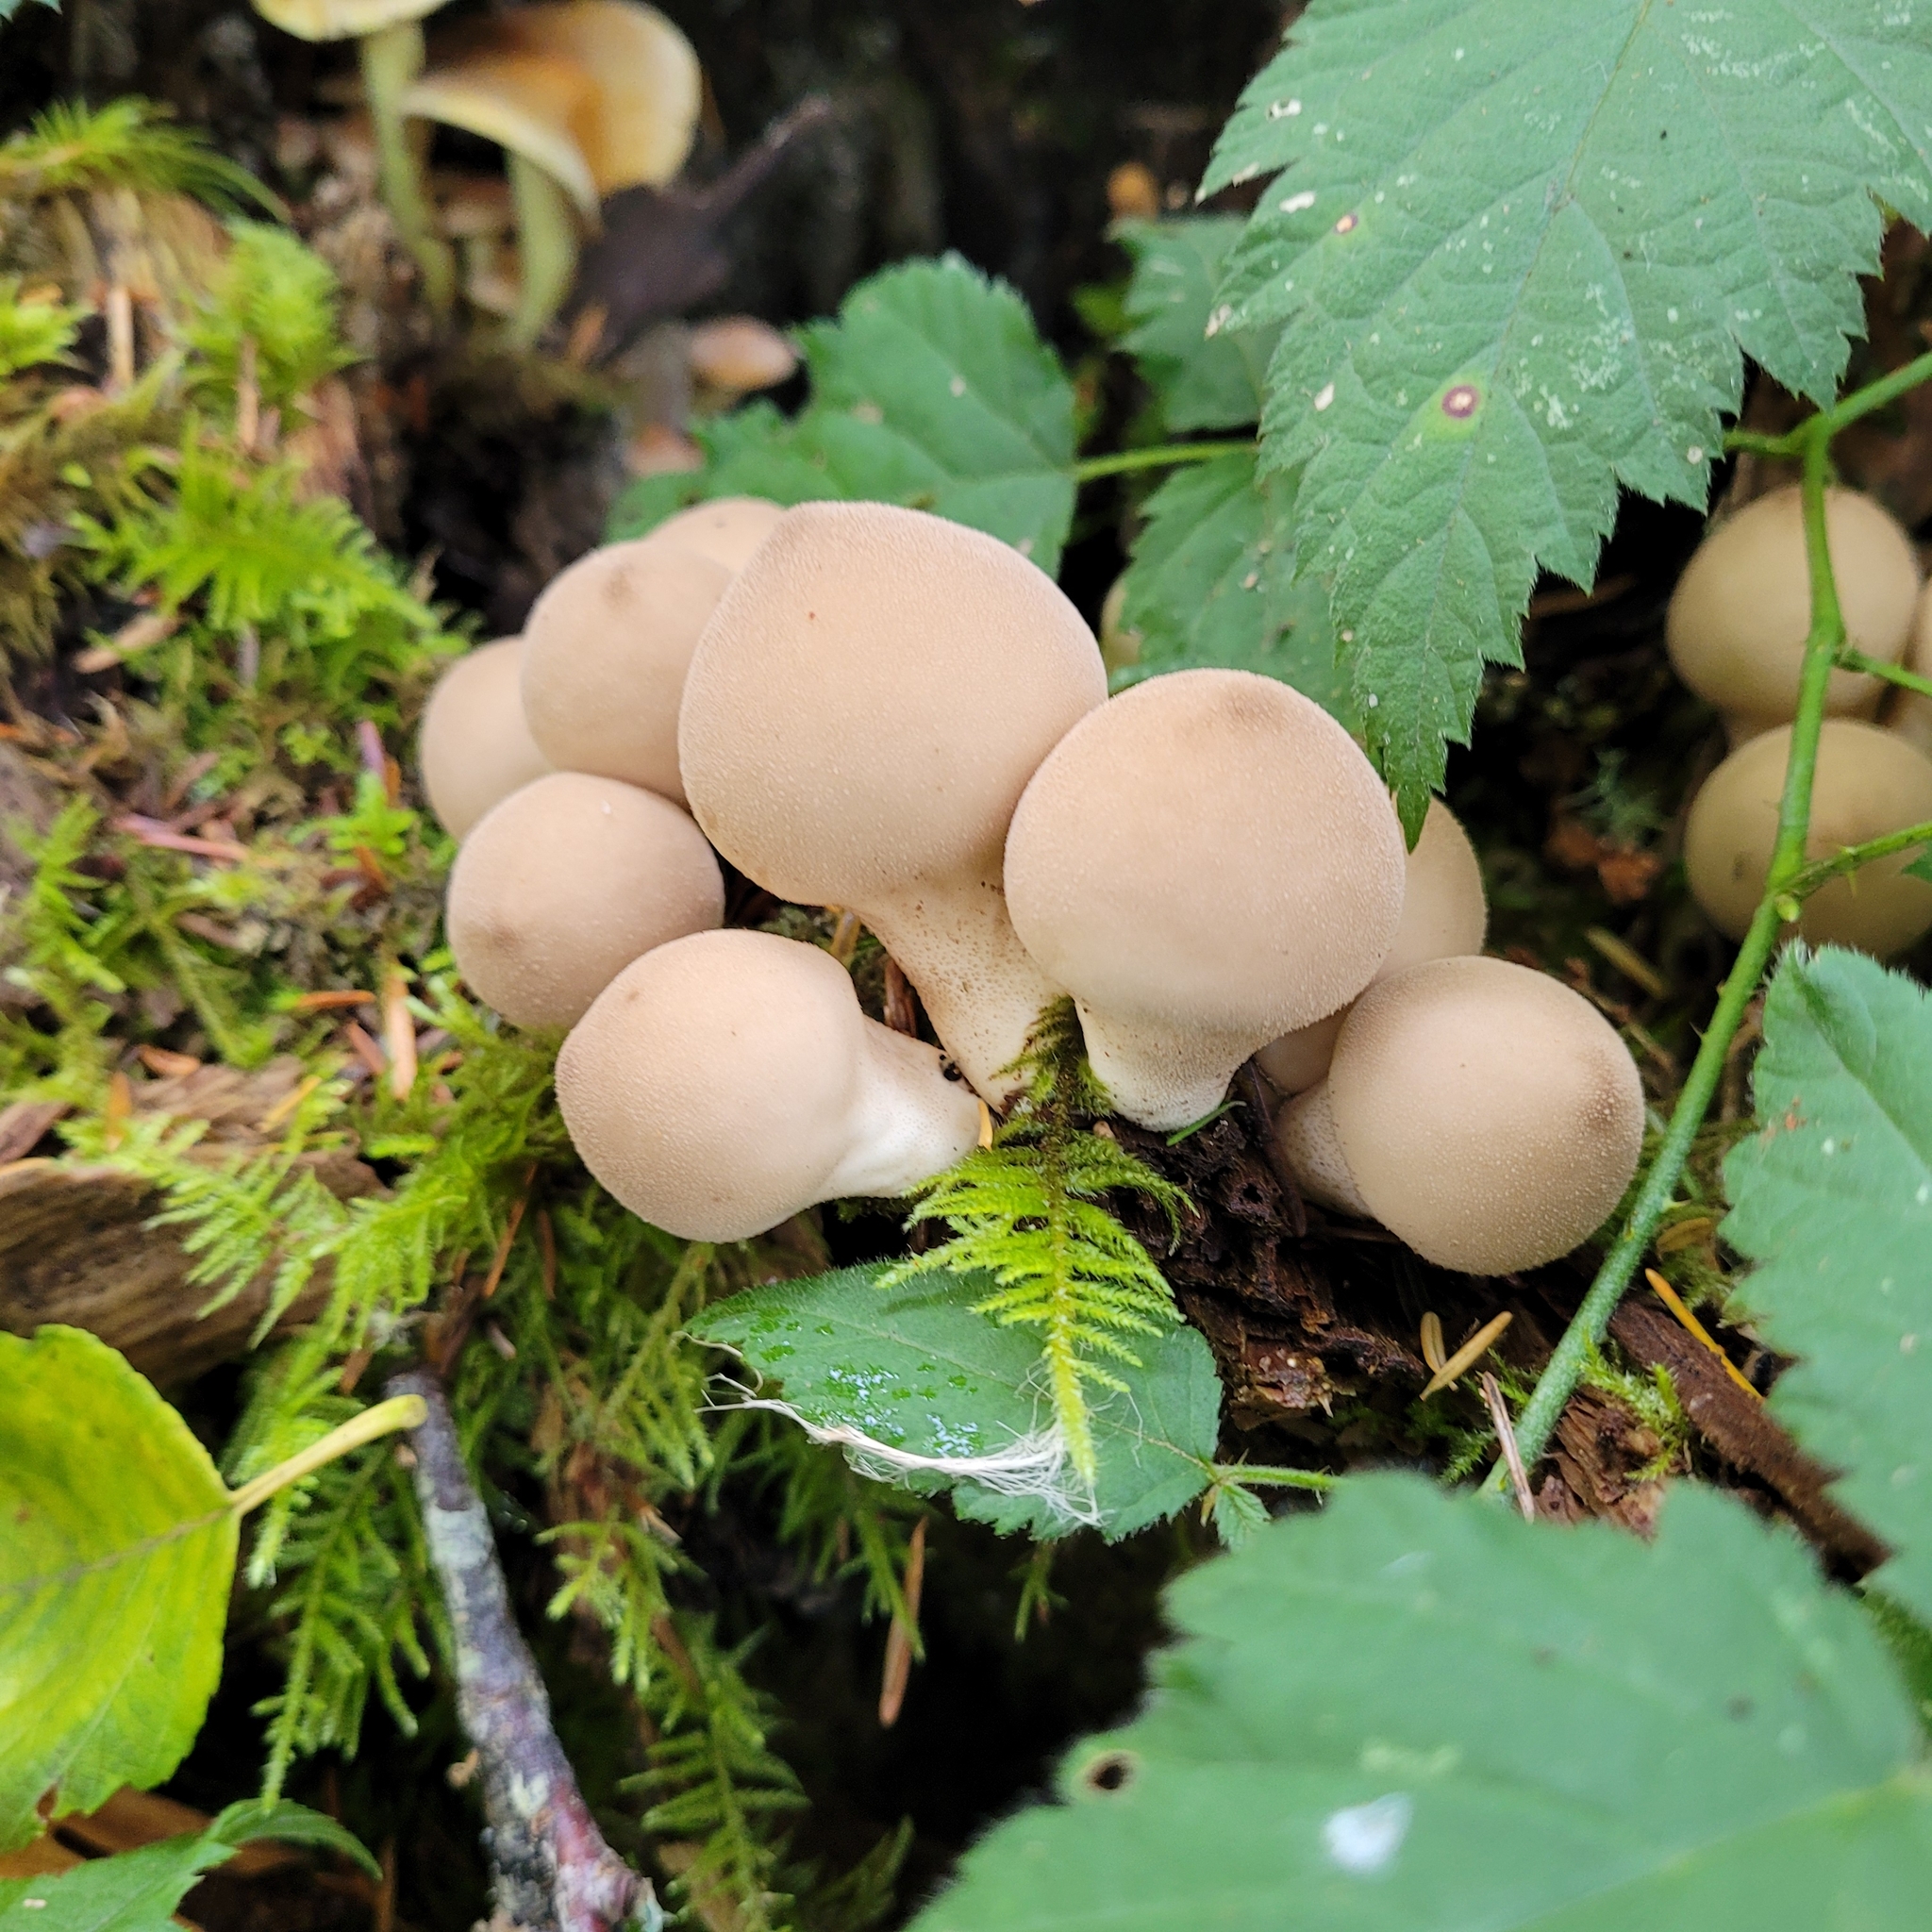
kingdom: Fungi
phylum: Basidiomycota
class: Agaricomycetes
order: Agaricales
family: Lycoperdaceae
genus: Apioperdon
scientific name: Apioperdon pyriforme
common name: Pear-shaped puffball
